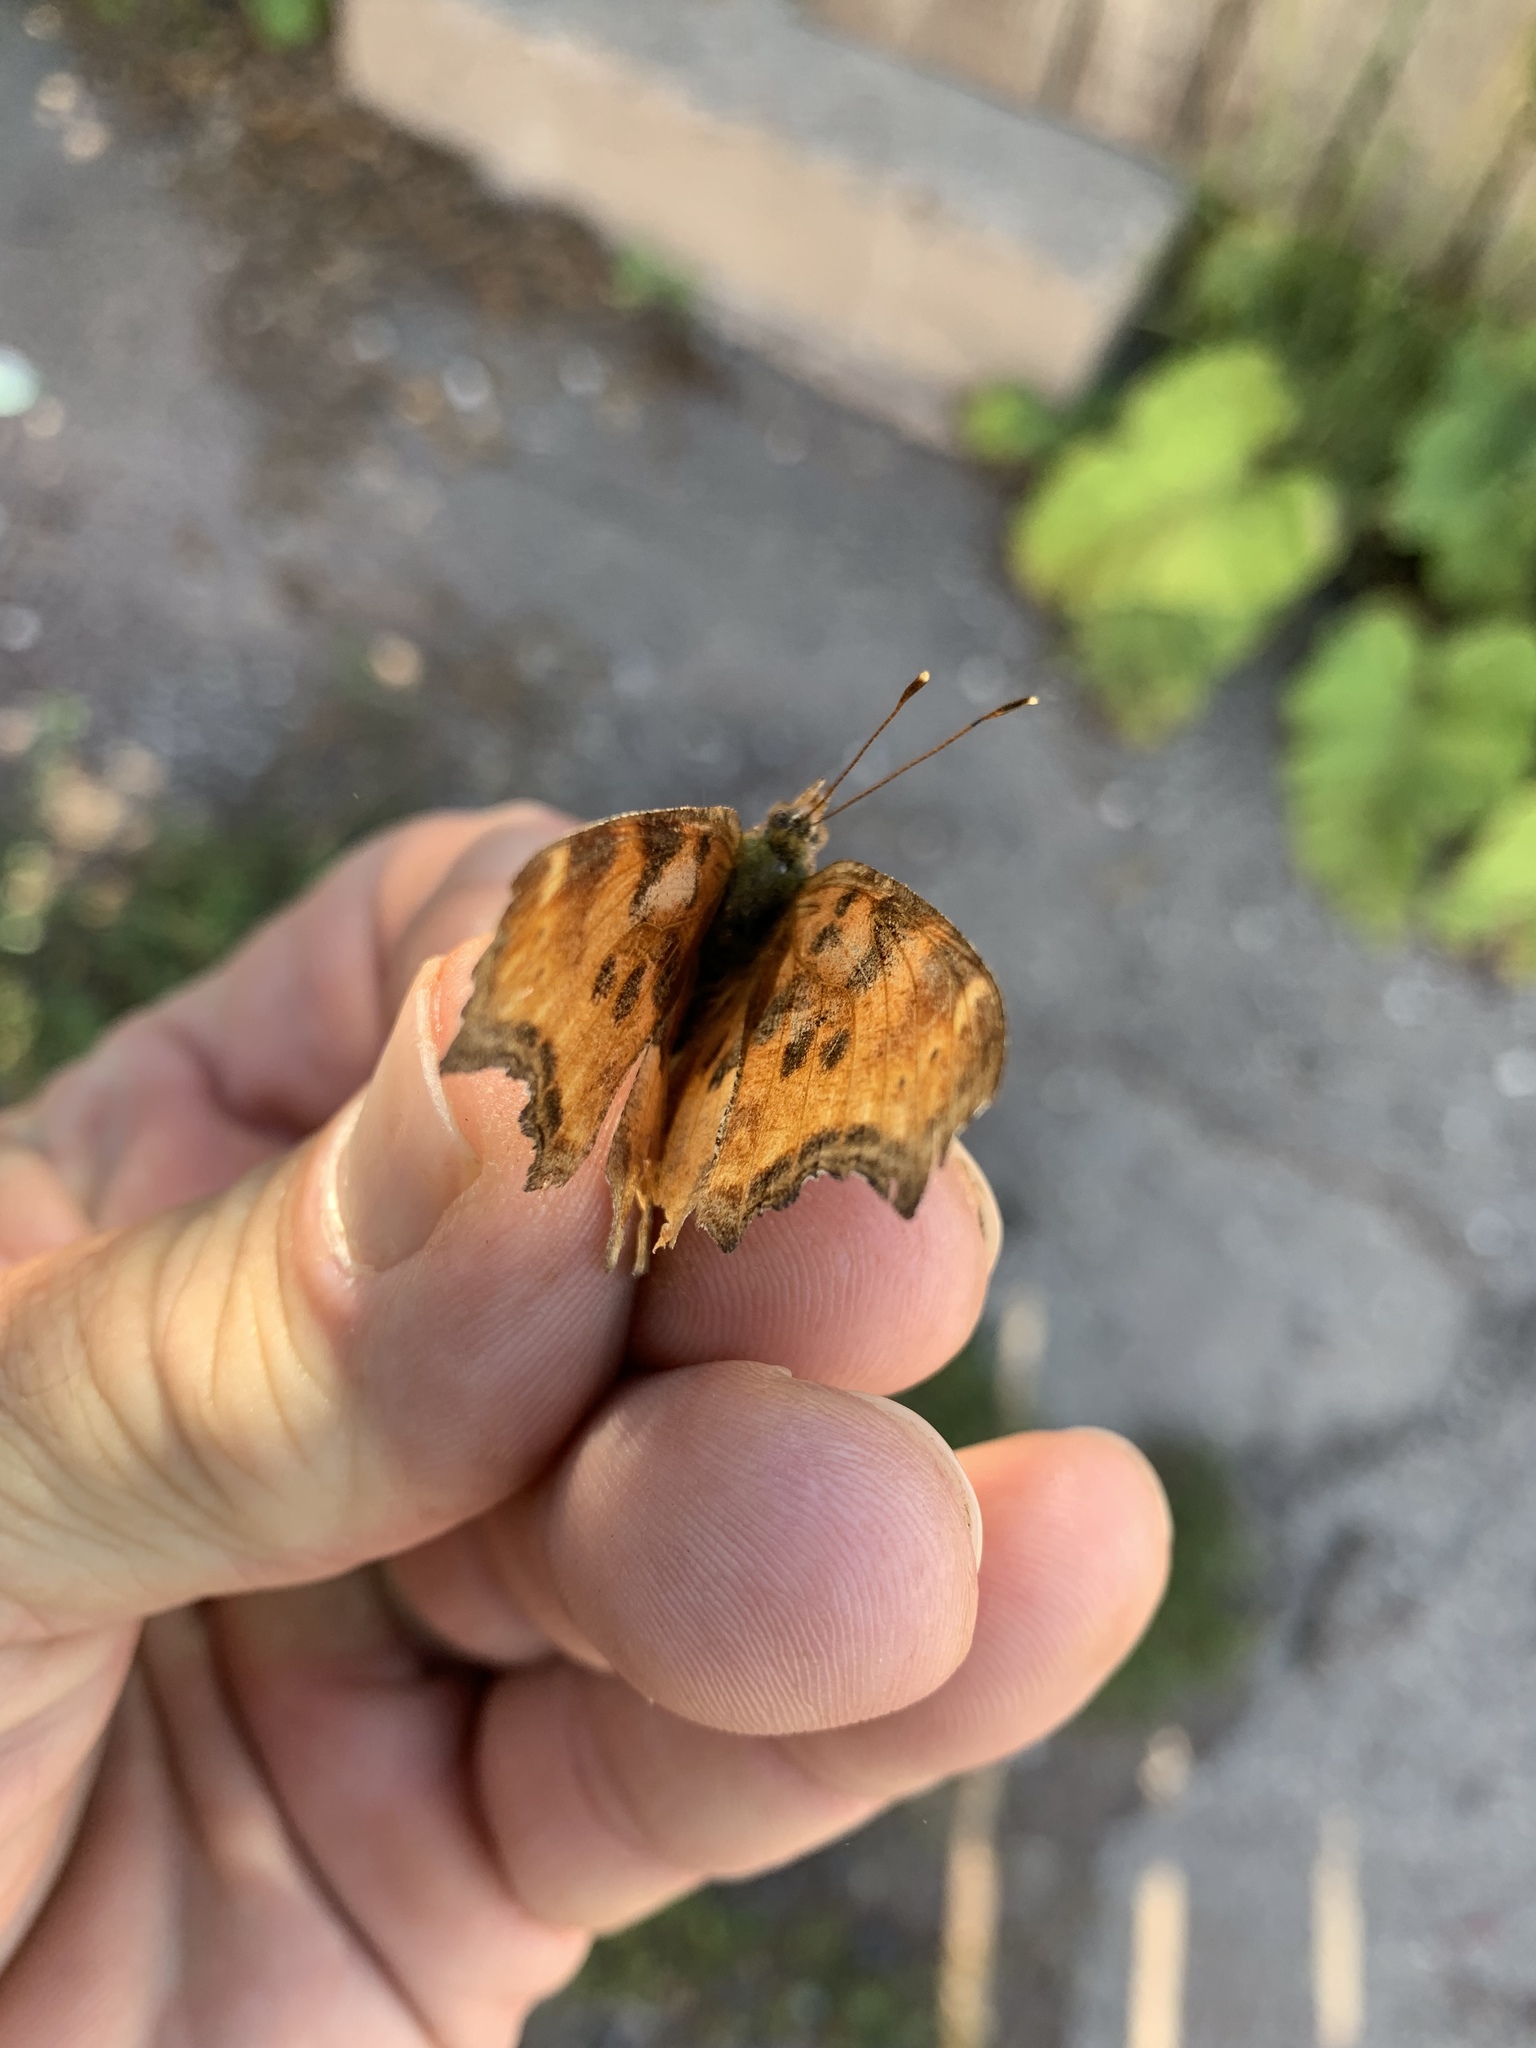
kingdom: Animalia
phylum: Arthropoda
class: Insecta
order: Lepidoptera
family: Nymphalidae
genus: Polygonia
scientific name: Polygonia satyrus
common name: Satyr angle wing
